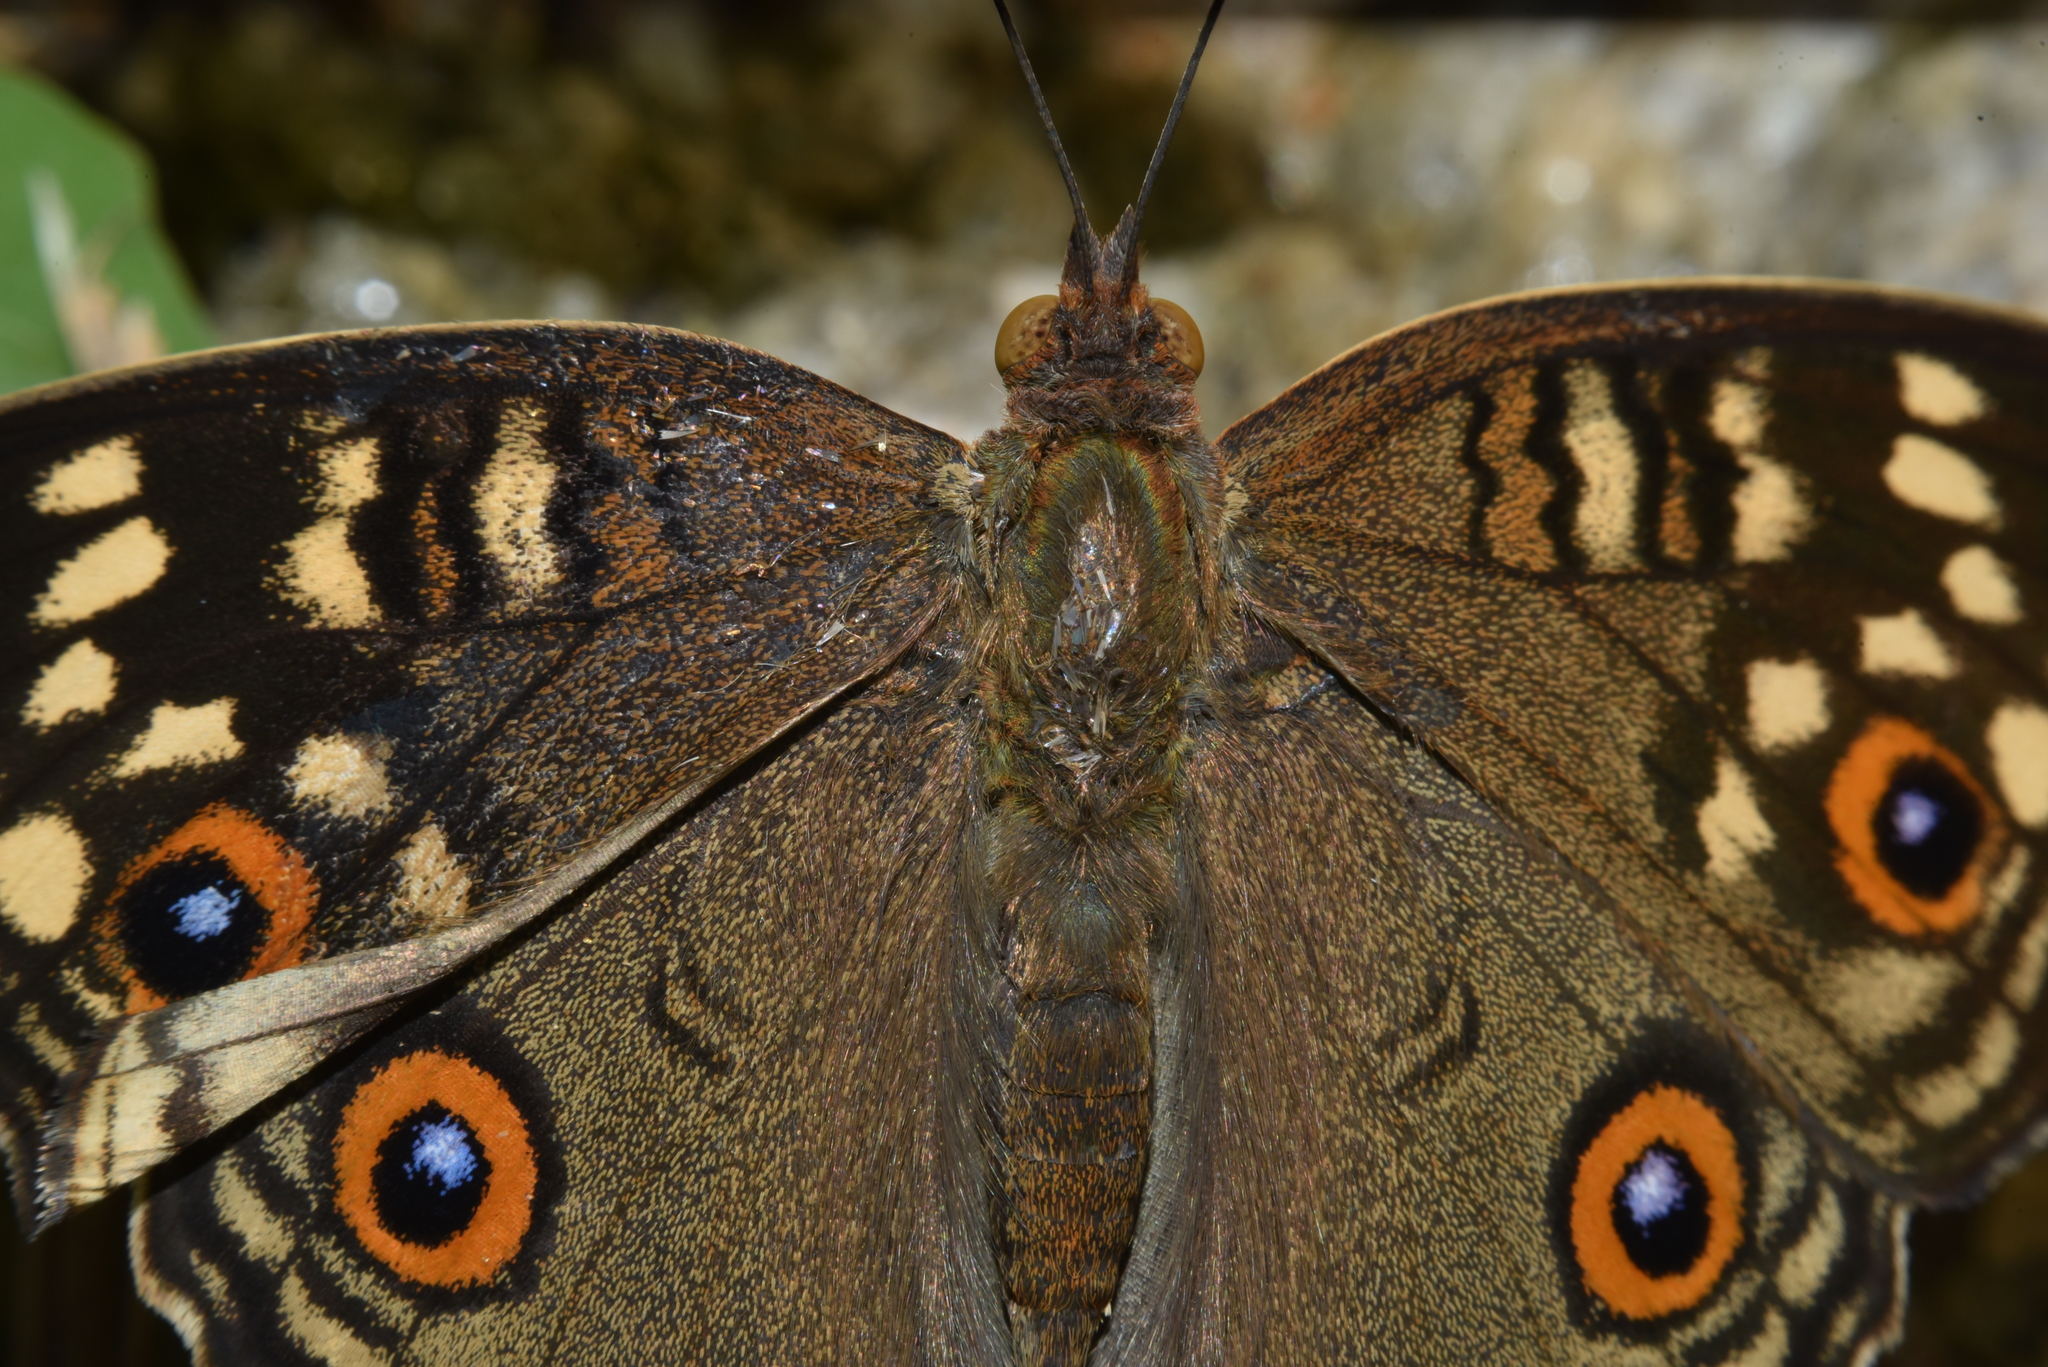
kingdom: Animalia
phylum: Arthropoda
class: Insecta
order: Lepidoptera
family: Nymphalidae
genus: Junonia
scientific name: Junonia lemonias
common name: Lemon pansy
